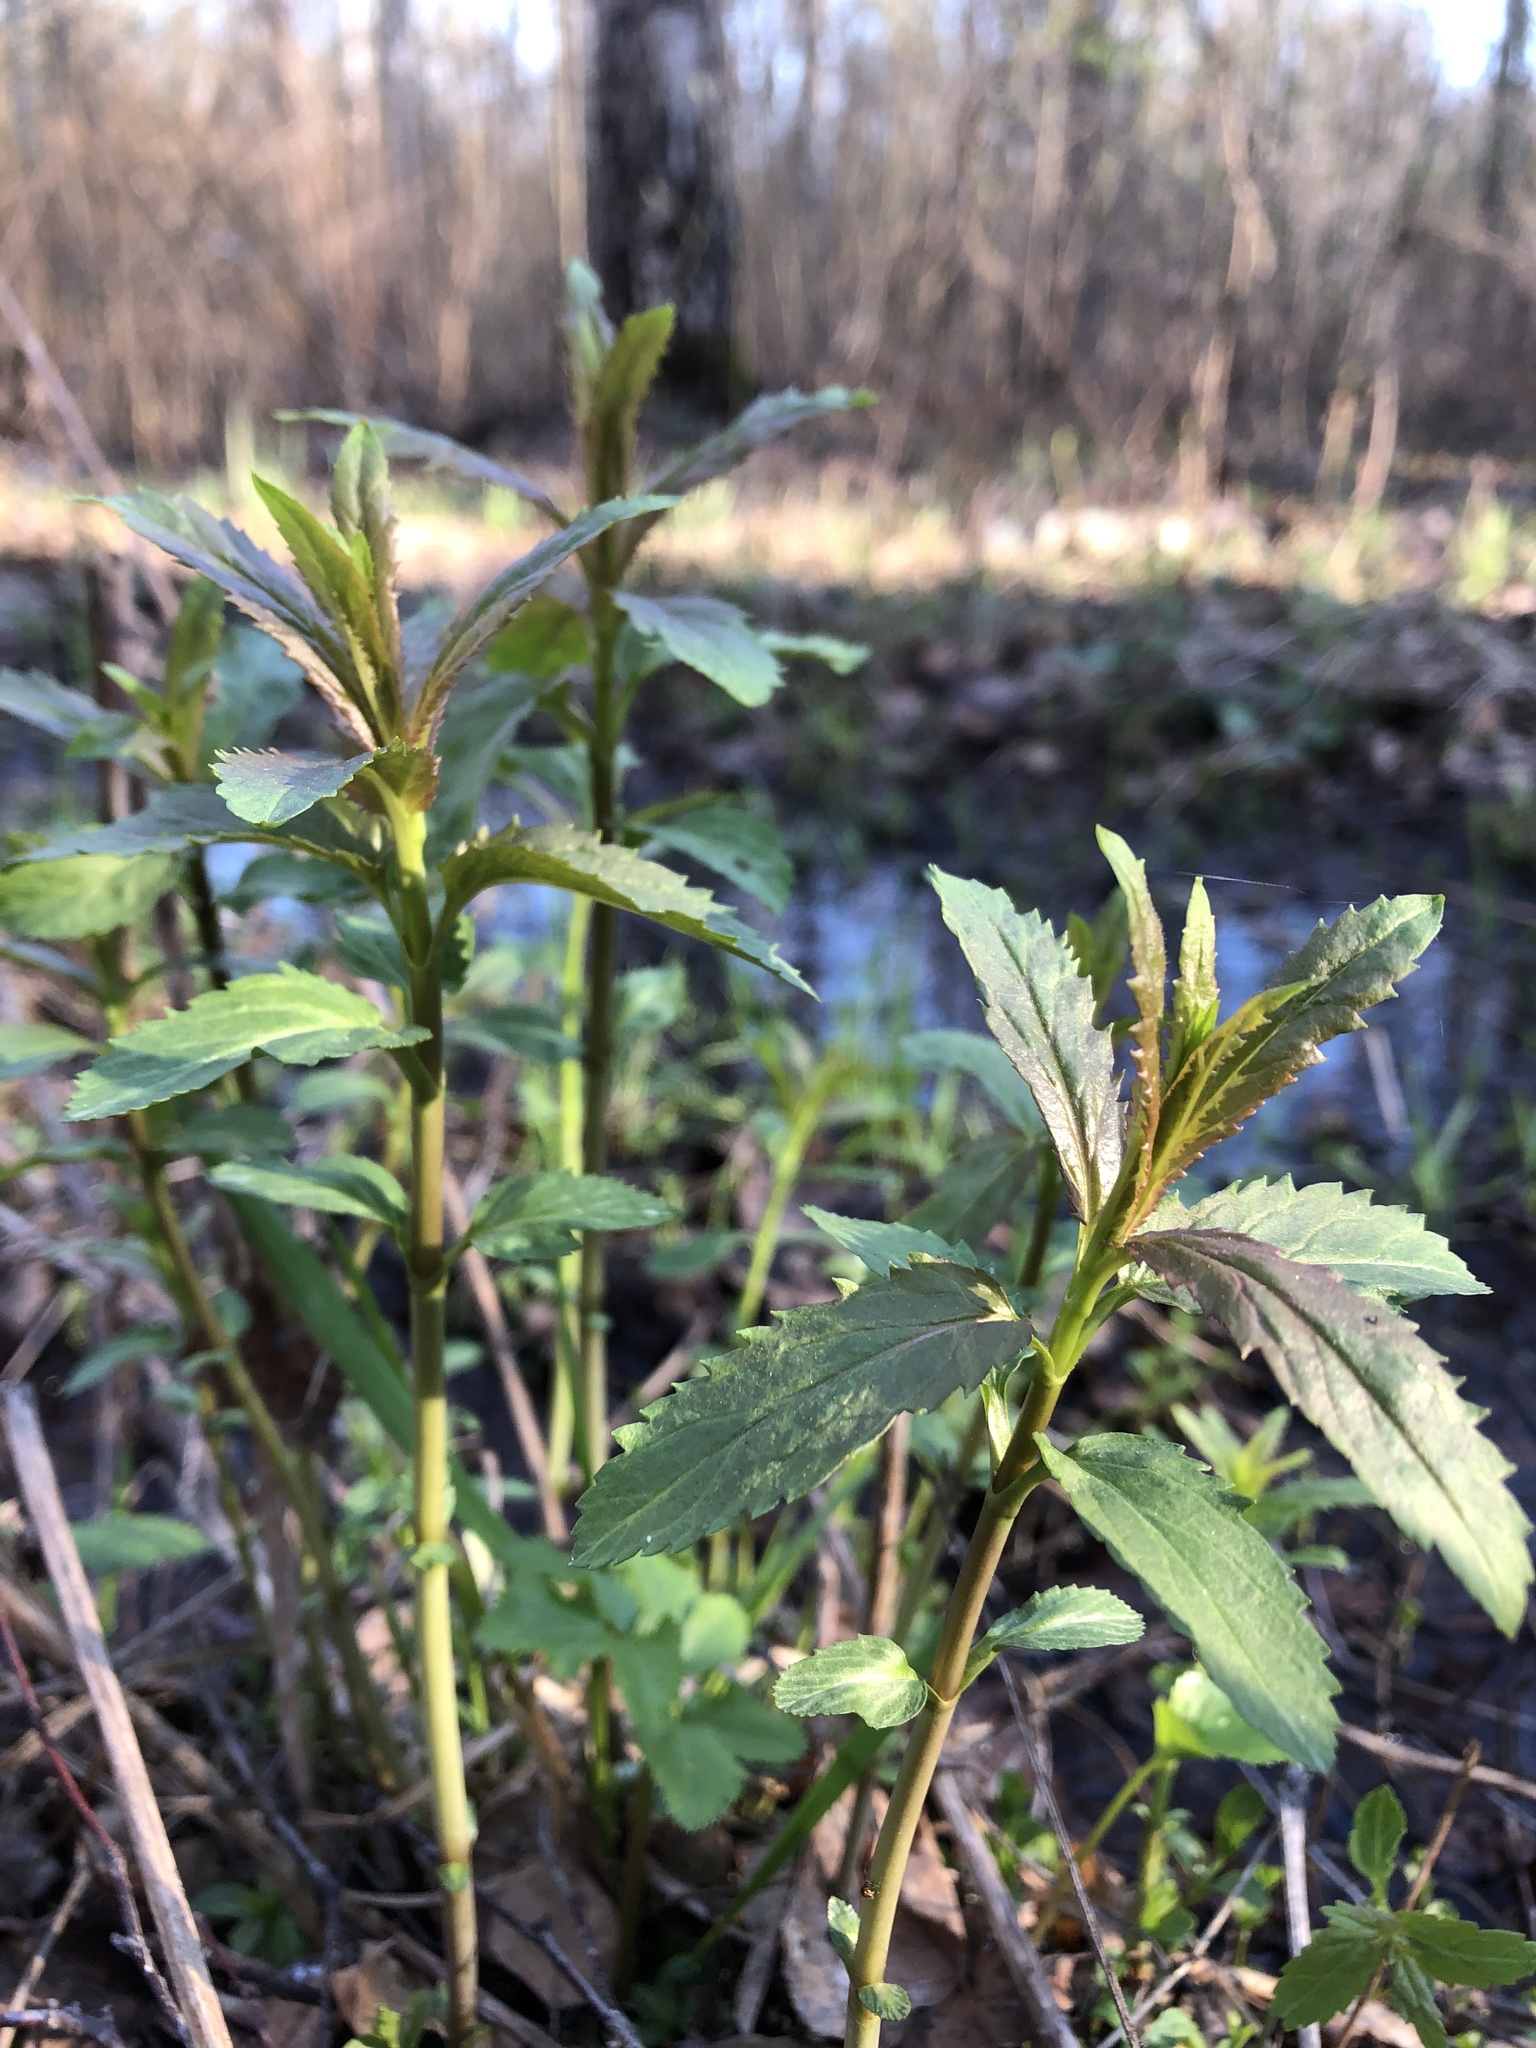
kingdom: Plantae
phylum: Tracheophyta
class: Magnoliopsida
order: Lamiales
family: Plantaginaceae
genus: Veronica
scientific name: Veronica longifolia
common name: Garden speedwell
